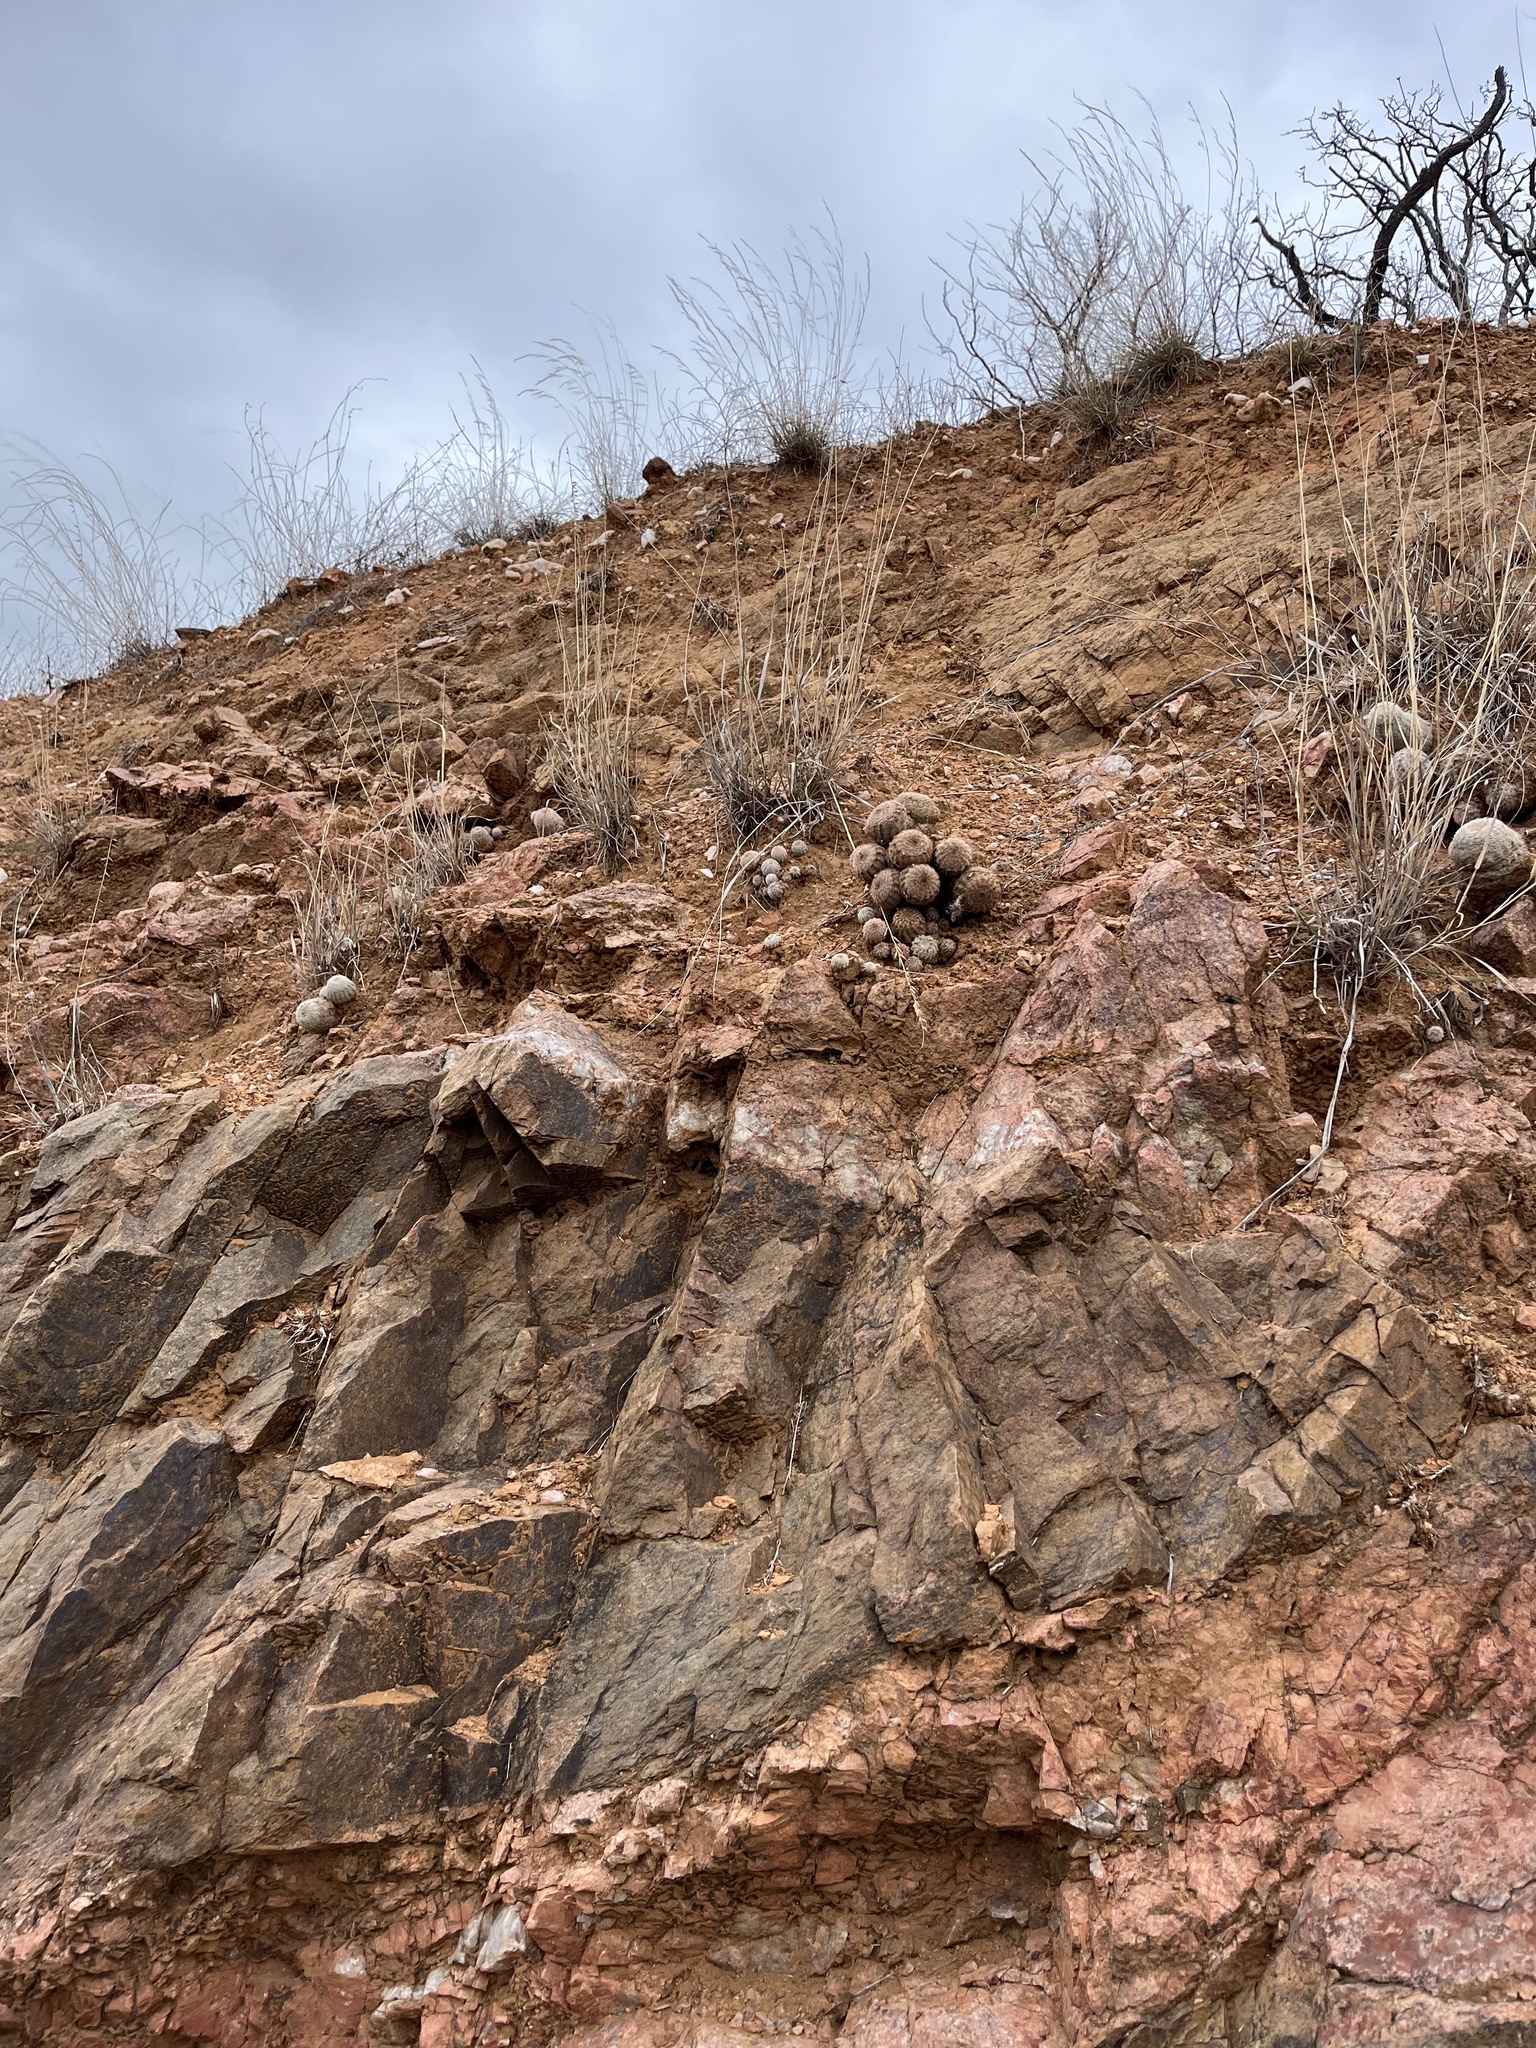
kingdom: Plantae
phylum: Tracheophyta
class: Magnoliopsida
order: Caryophyllales
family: Cactaceae
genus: Echinocereus
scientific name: Echinocereus reichenbachii
